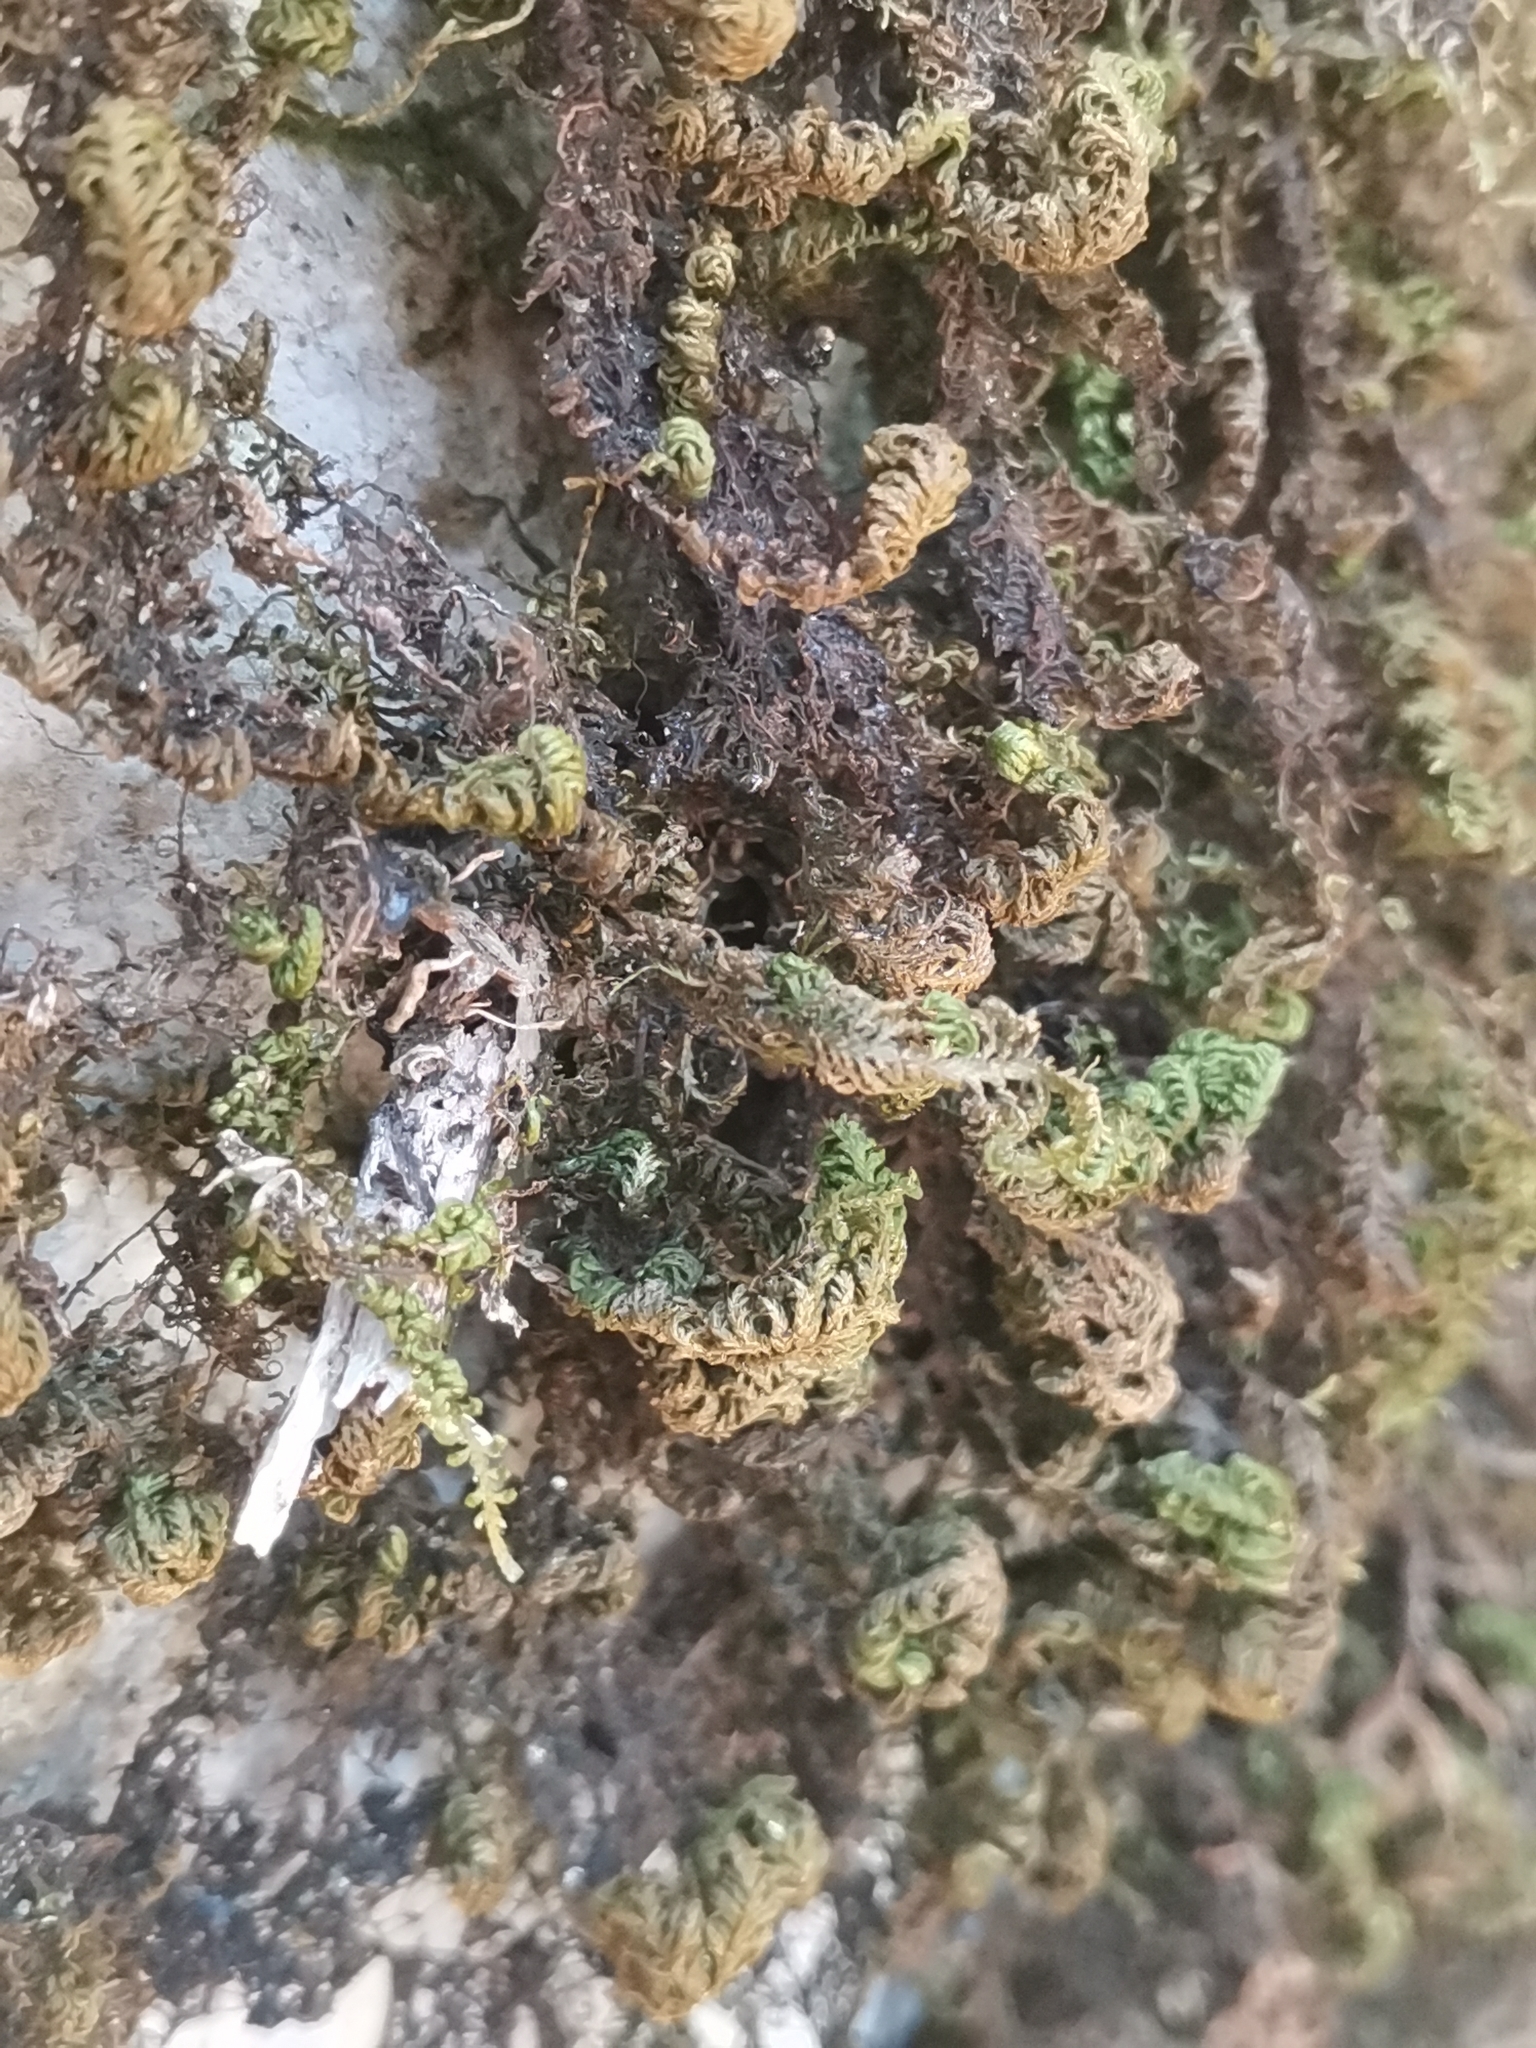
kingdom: Plantae
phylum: Bryophyta
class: Bryopsida
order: Hypnales
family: Neckeraceae
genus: Leptodon
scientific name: Leptodon smithii
